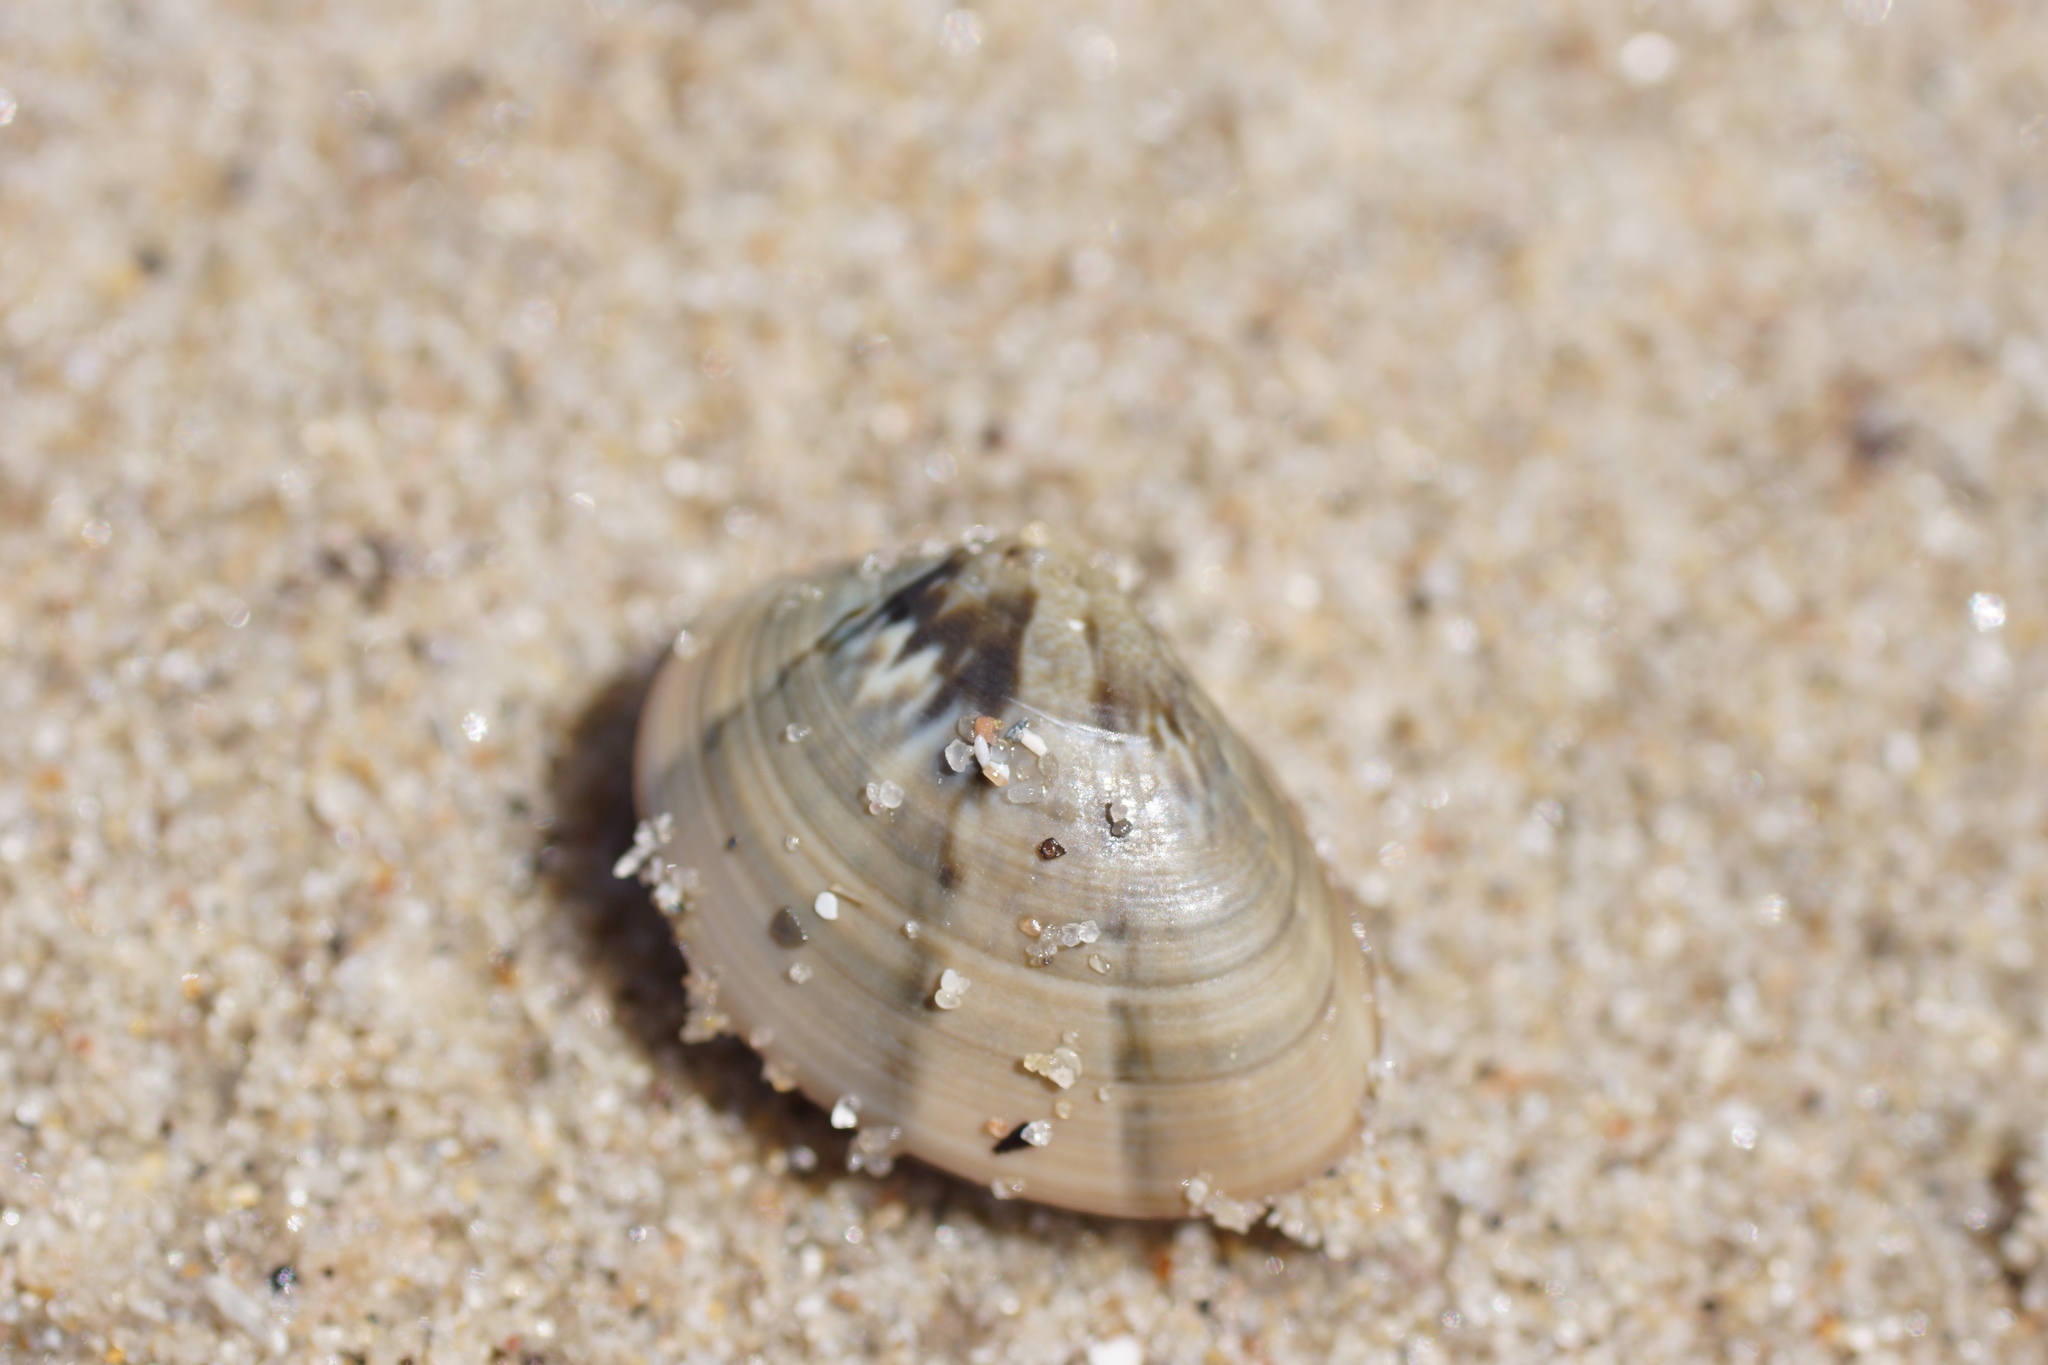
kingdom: Animalia
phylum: Mollusca
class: Bivalvia
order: Venerida
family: Veneridae
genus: Eumarcia
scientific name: Eumarcia fumigata
